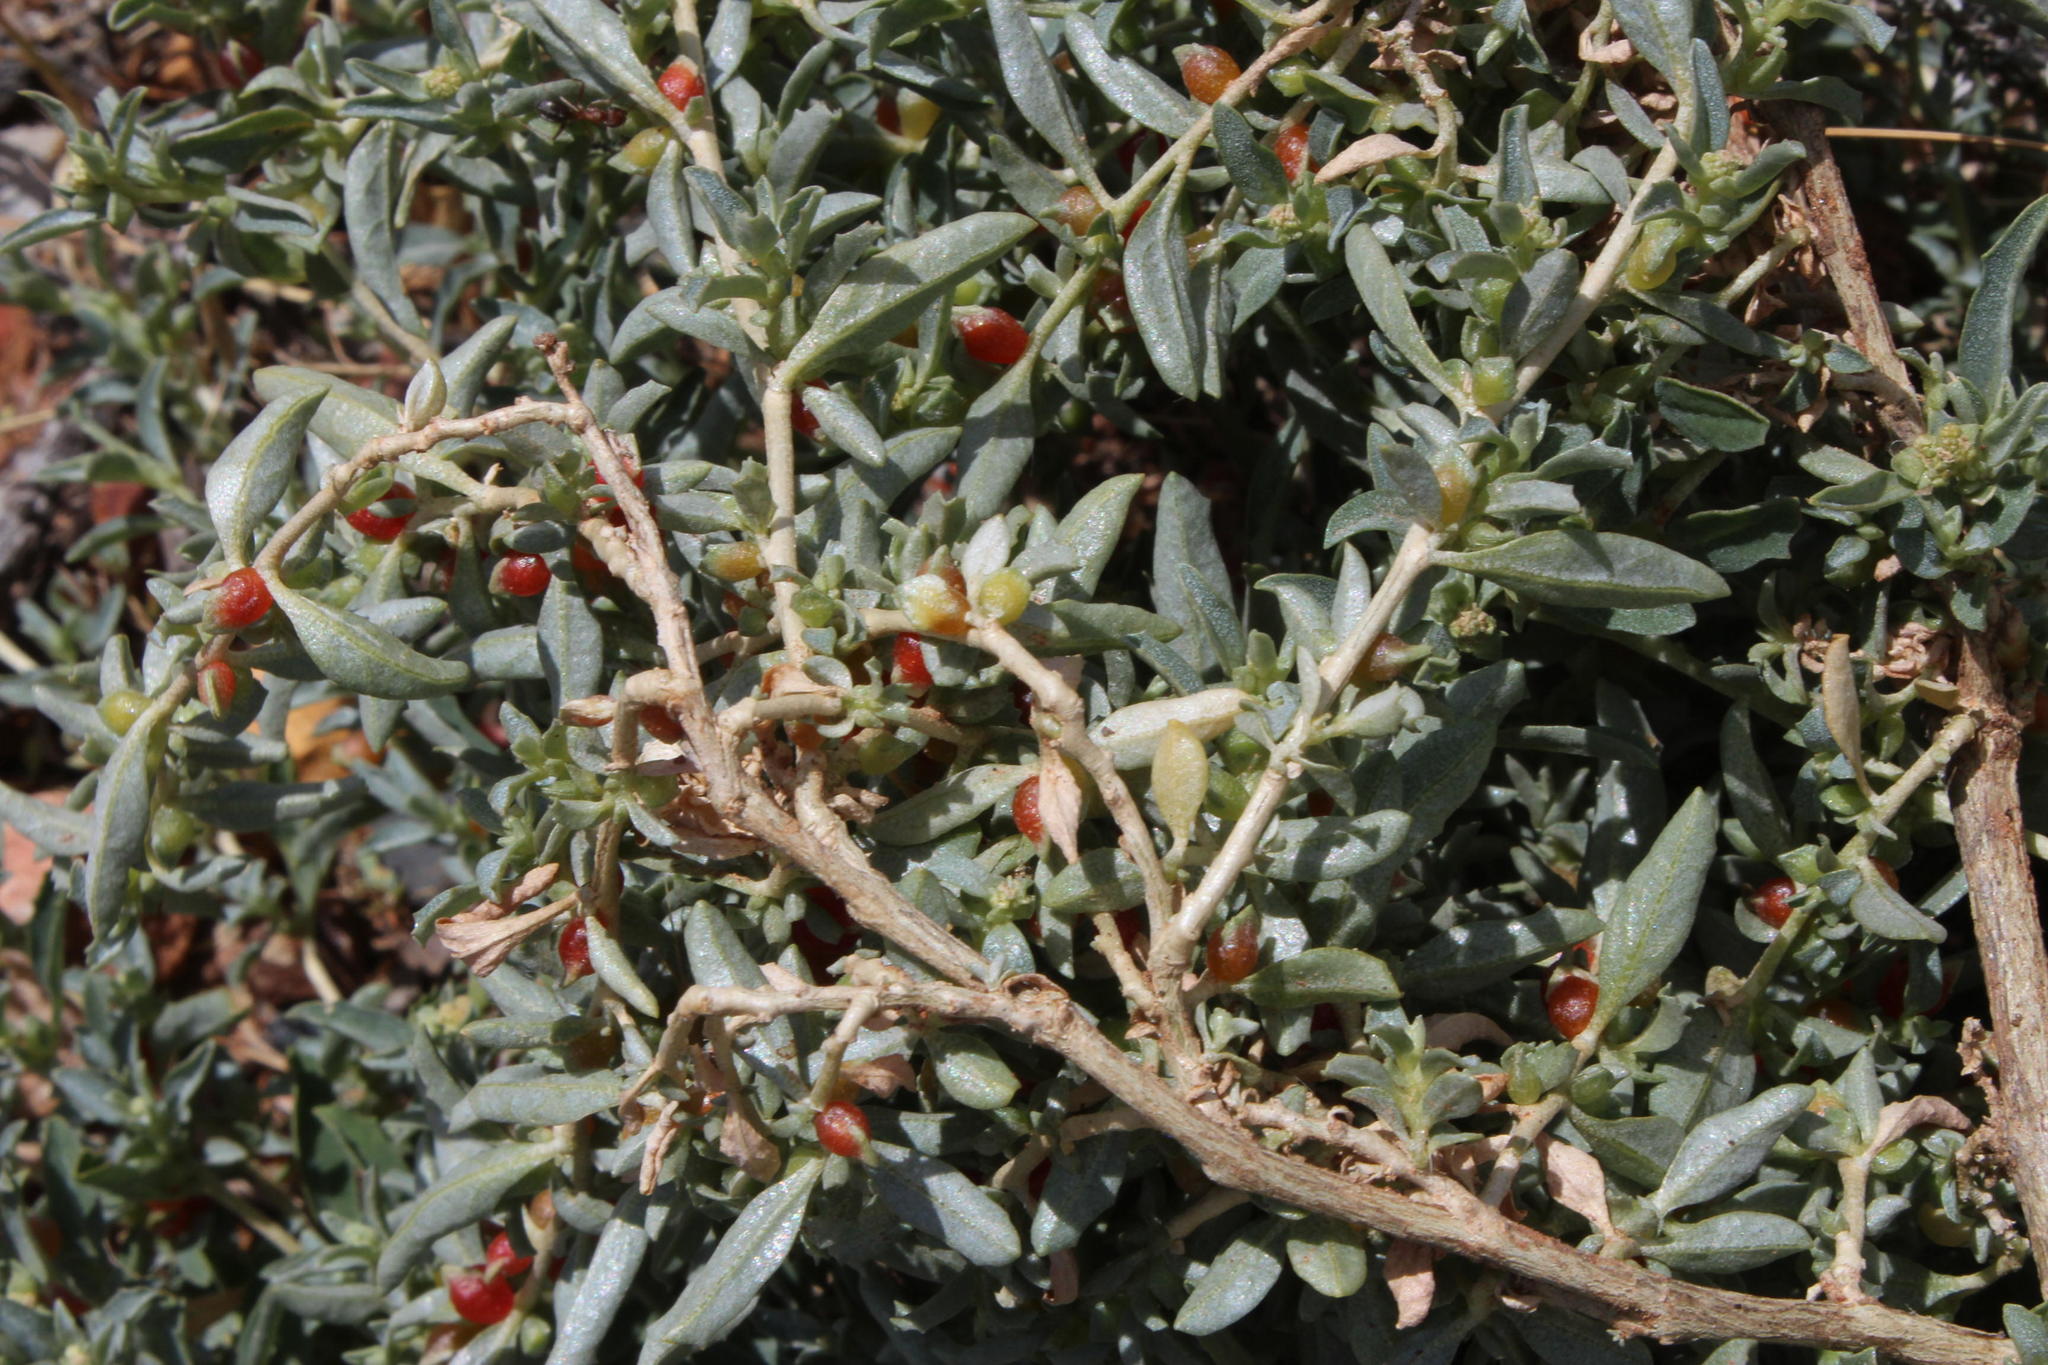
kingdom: Plantae
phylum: Tracheophyta
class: Magnoliopsida
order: Caryophyllales
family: Amaranthaceae
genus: Atriplex
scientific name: Atriplex semibaccata
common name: Australian saltbush
